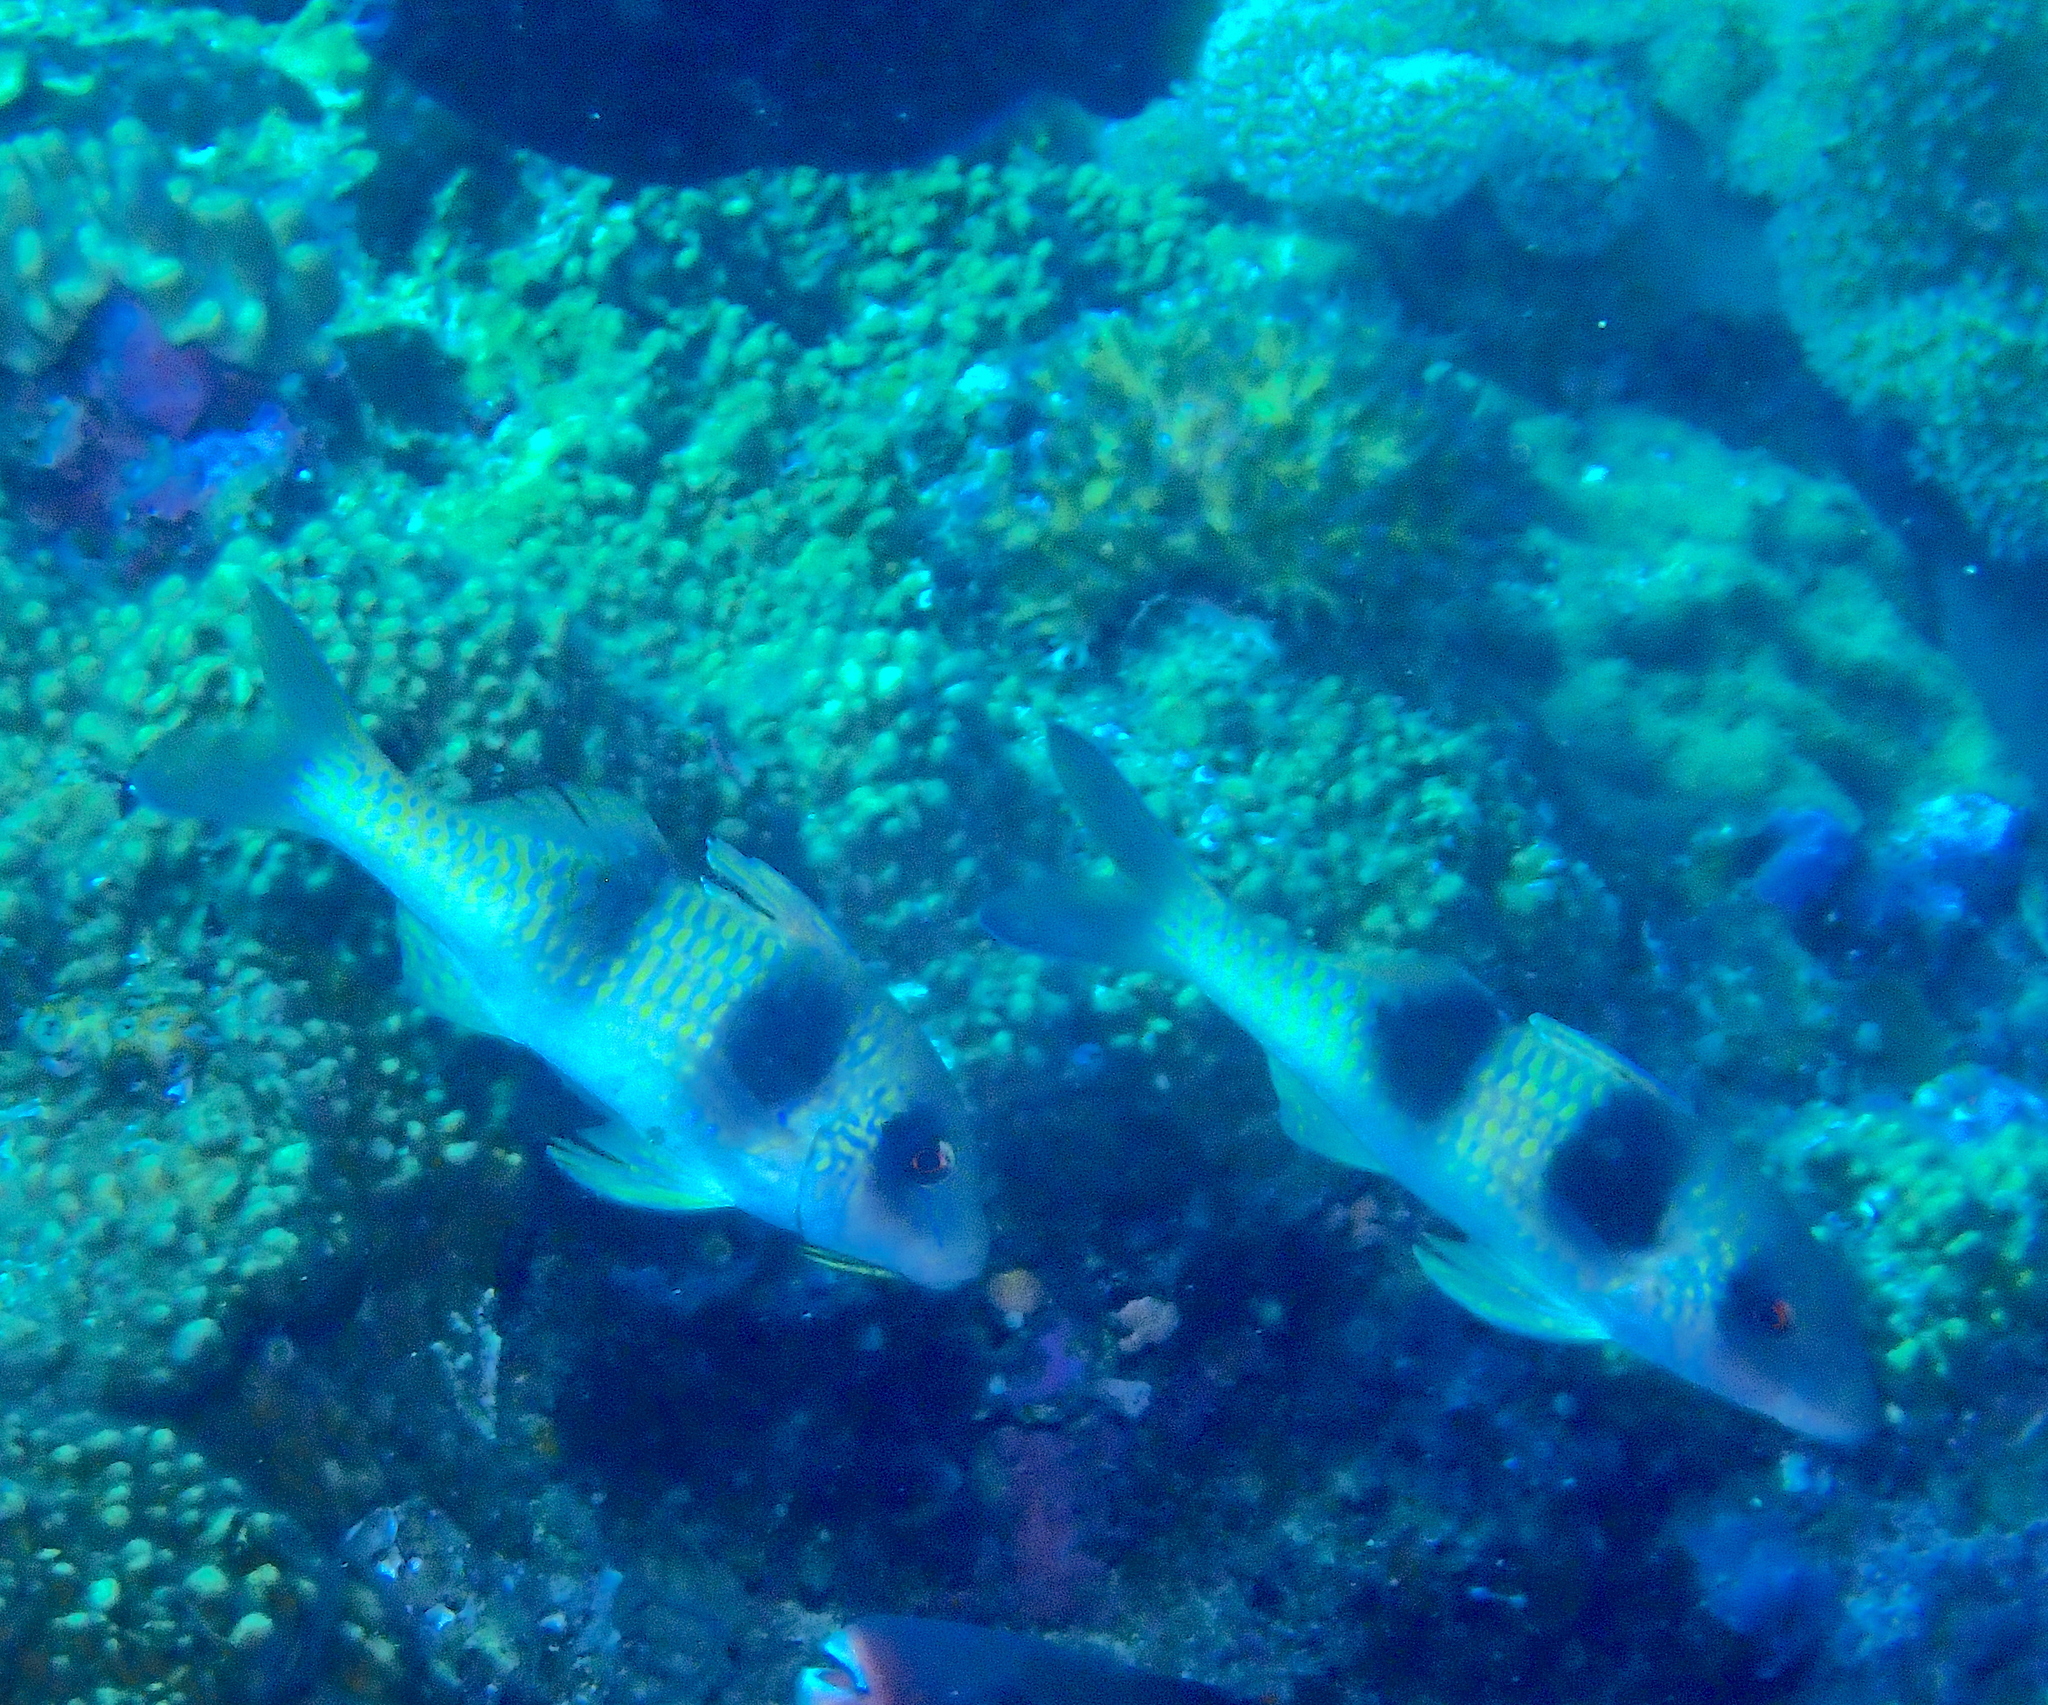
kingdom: Animalia
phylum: Chordata
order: Perciformes
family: Mullidae
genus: Parupeneus
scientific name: Parupeneus crassilabris
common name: Doublebar goatfish
